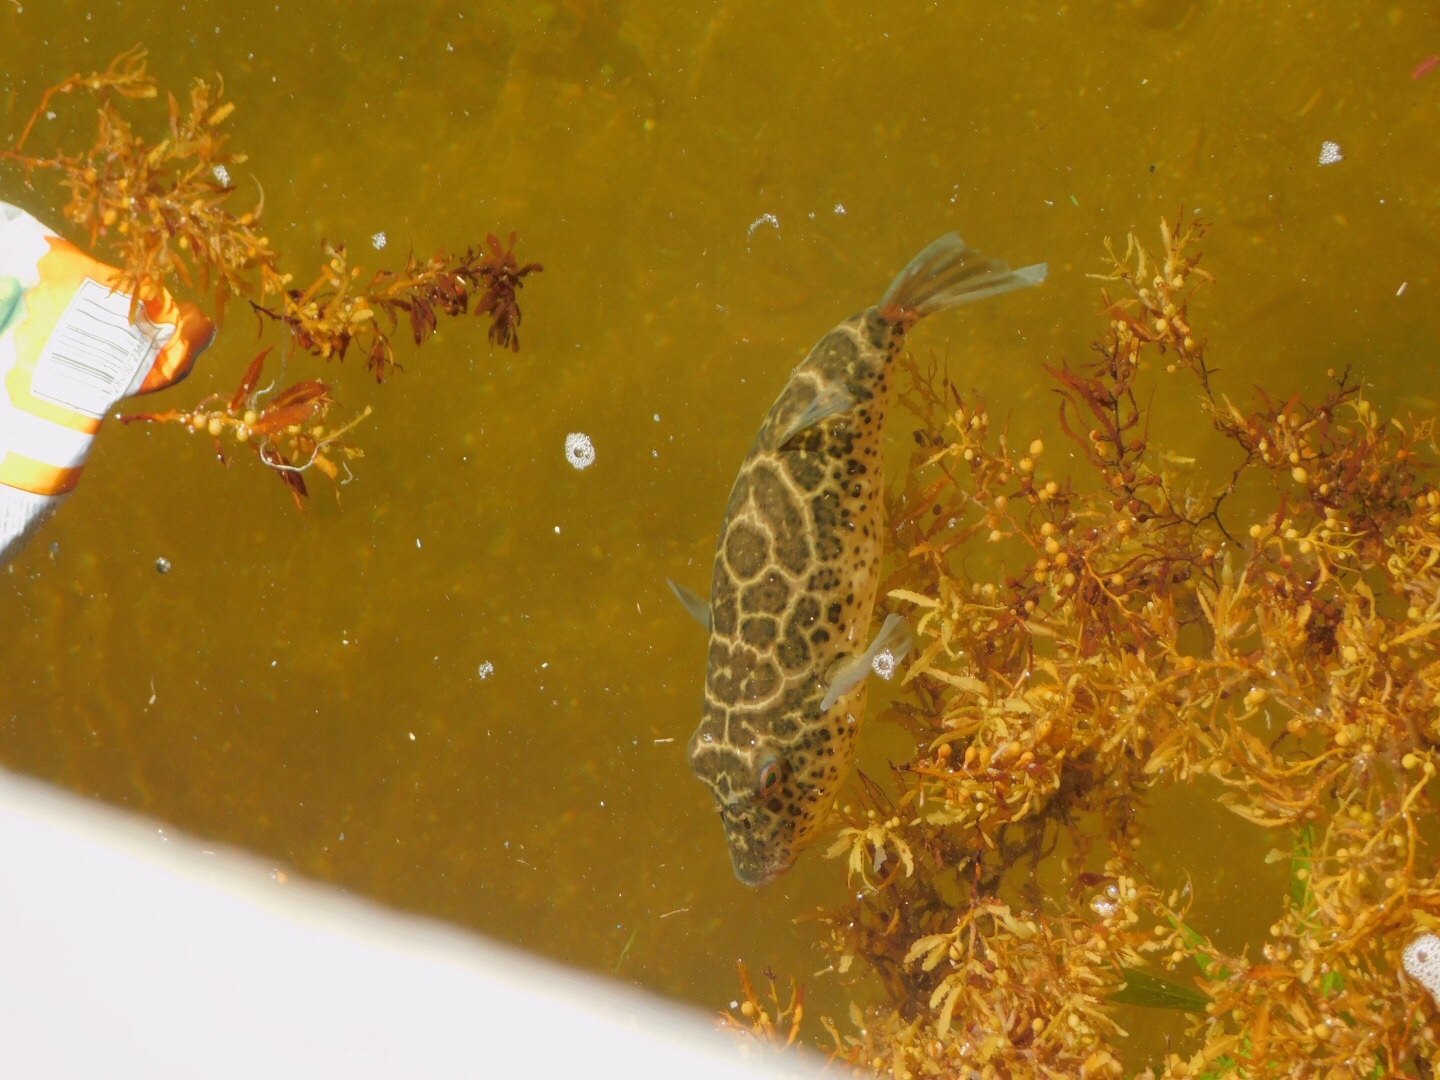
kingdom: Animalia
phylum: Chordata
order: Tetraodontiformes
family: Tetraodontidae
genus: Sphoeroides
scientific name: Sphoeroides testudineus
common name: Checkered puffer
